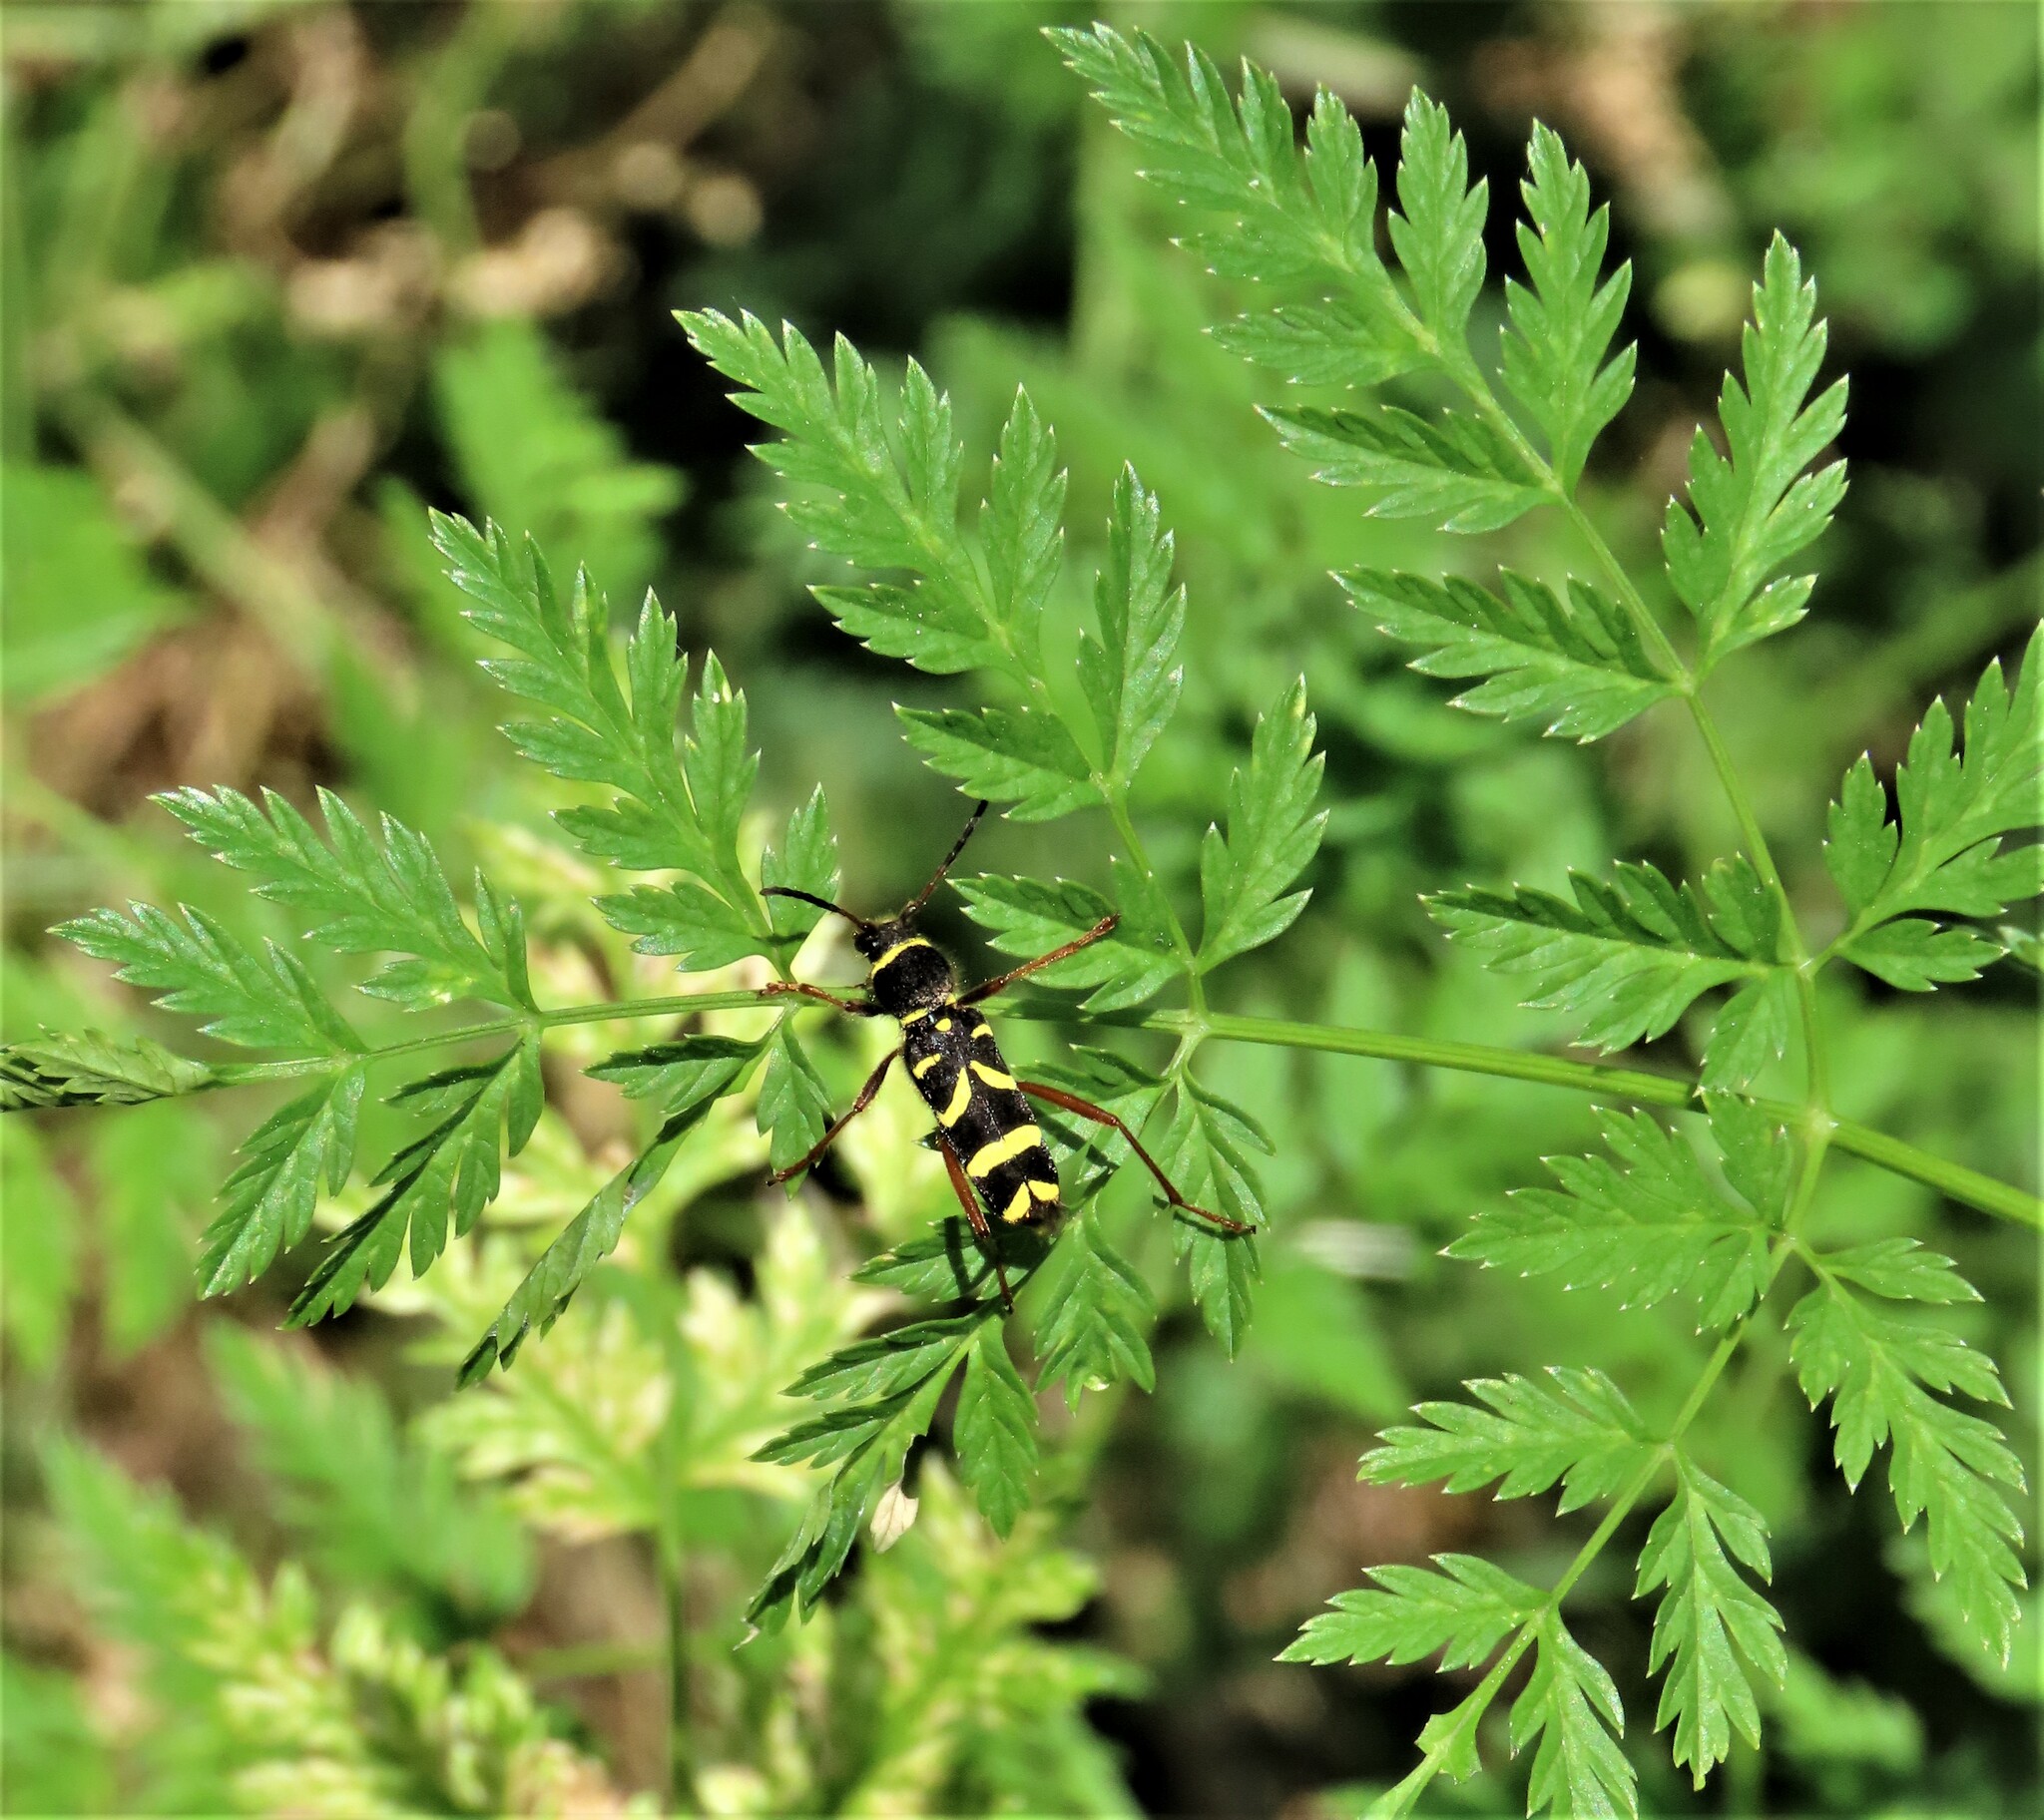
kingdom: Animalia
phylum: Arthropoda
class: Insecta
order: Coleoptera
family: Cerambycidae
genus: Clytus
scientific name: Clytus arietis
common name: Wasp beetle
